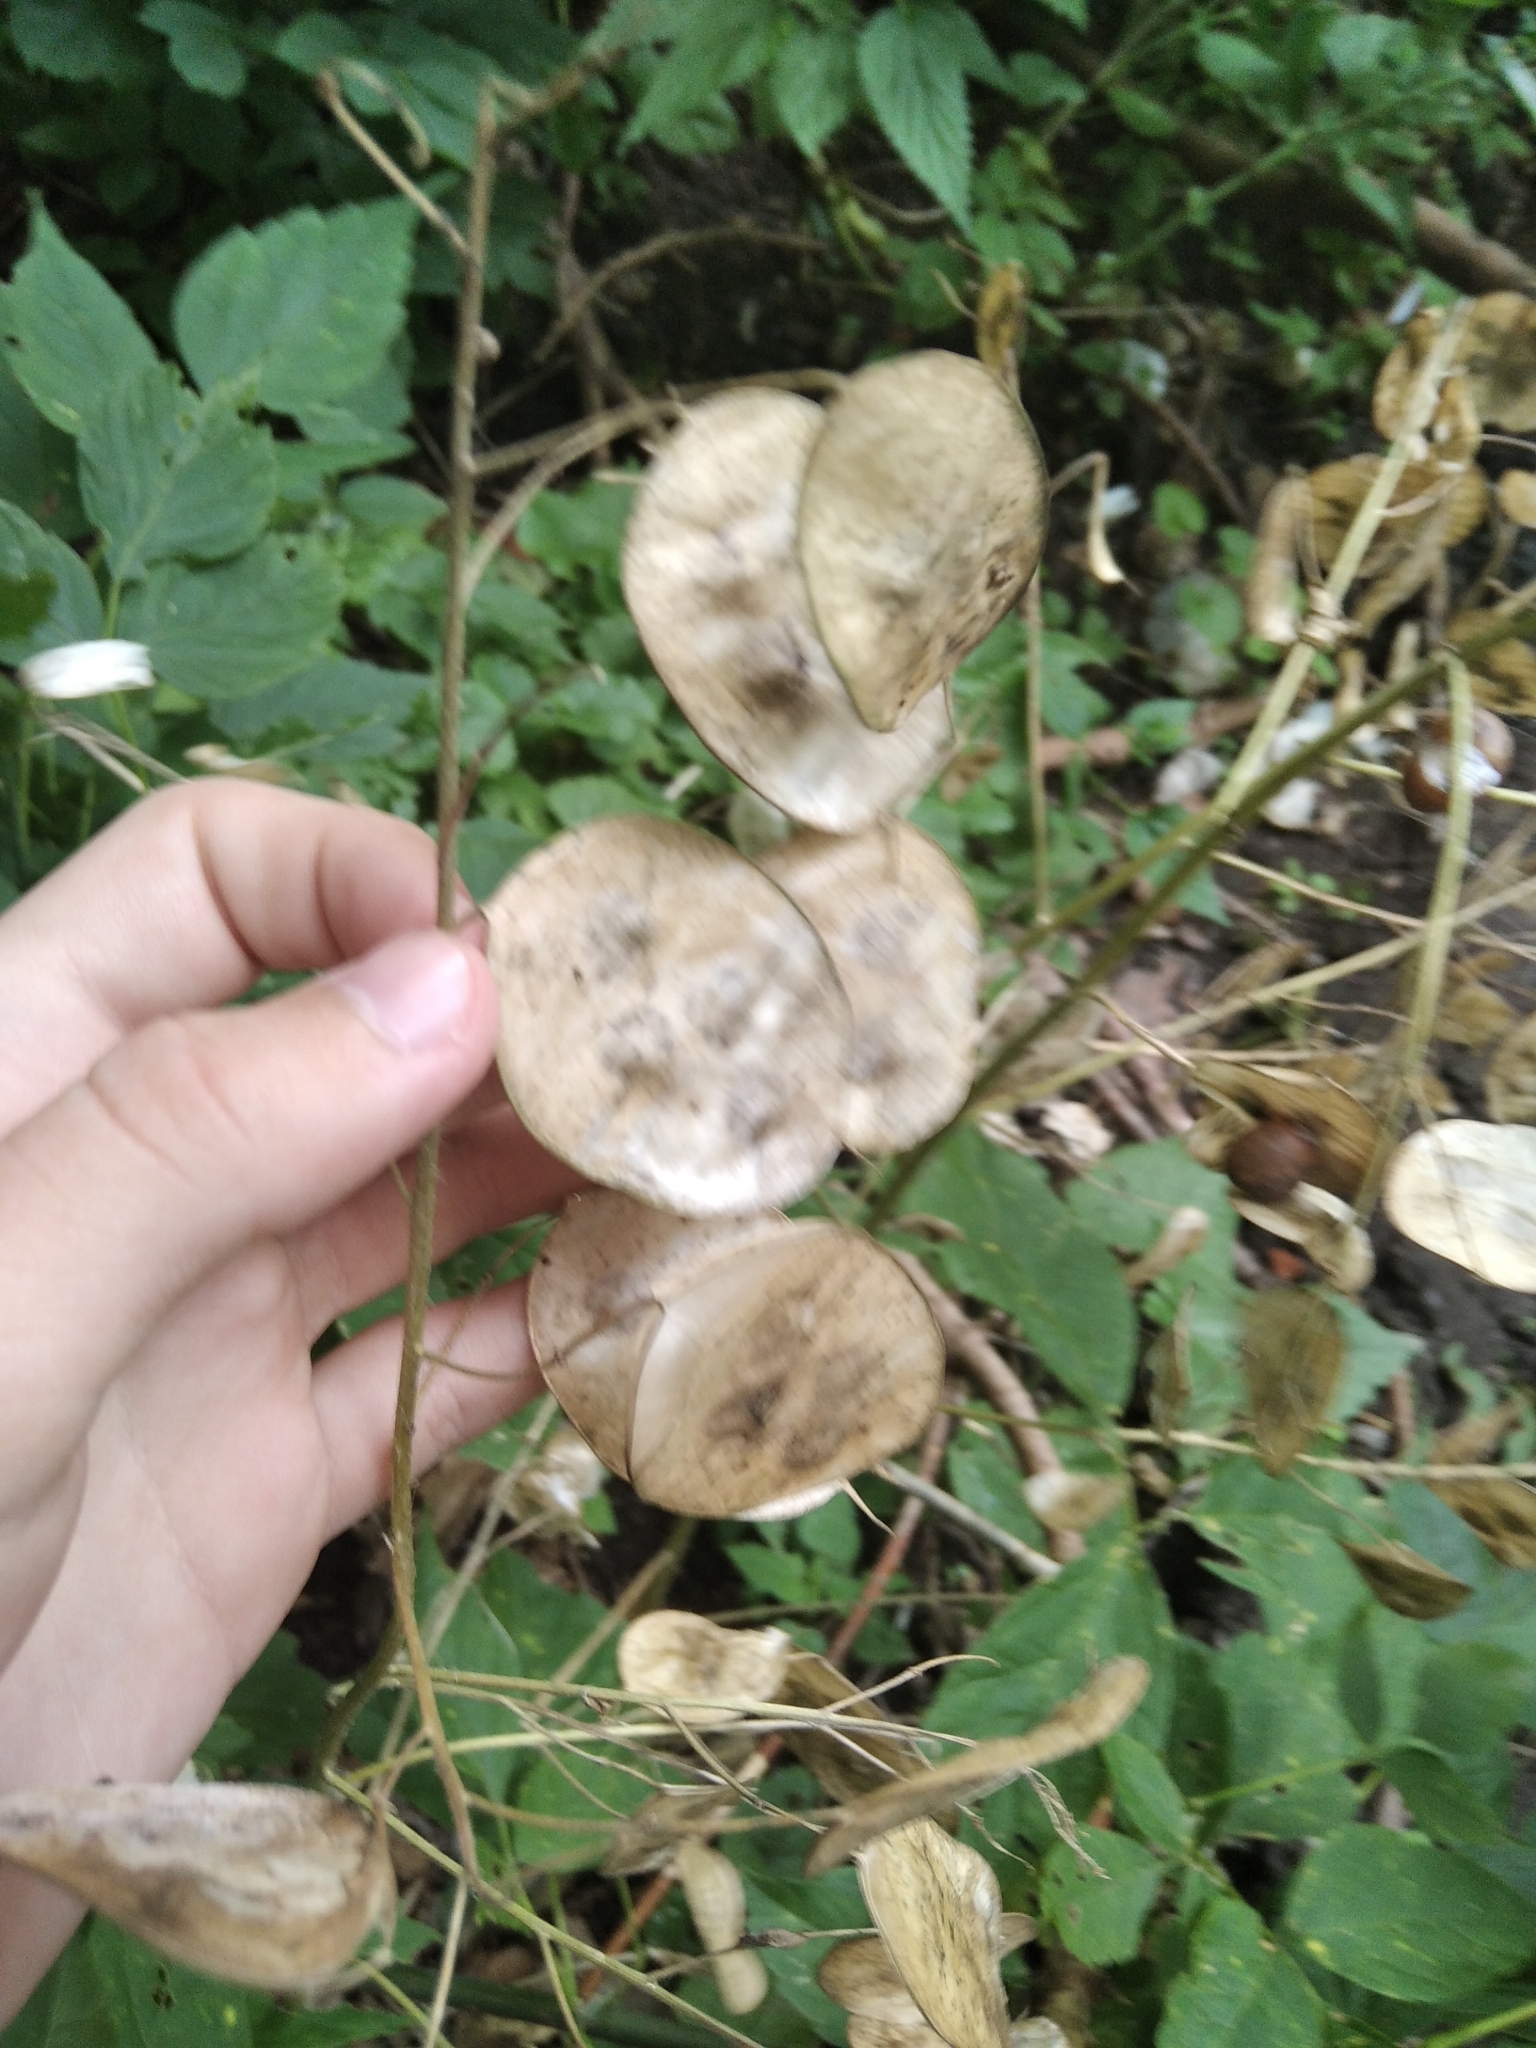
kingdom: Plantae
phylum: Tracheophyta
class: Magnoliopsida
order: Brassicales
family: Brassicaceae
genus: Lunaria
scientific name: Lunaria annua
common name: Honesty
